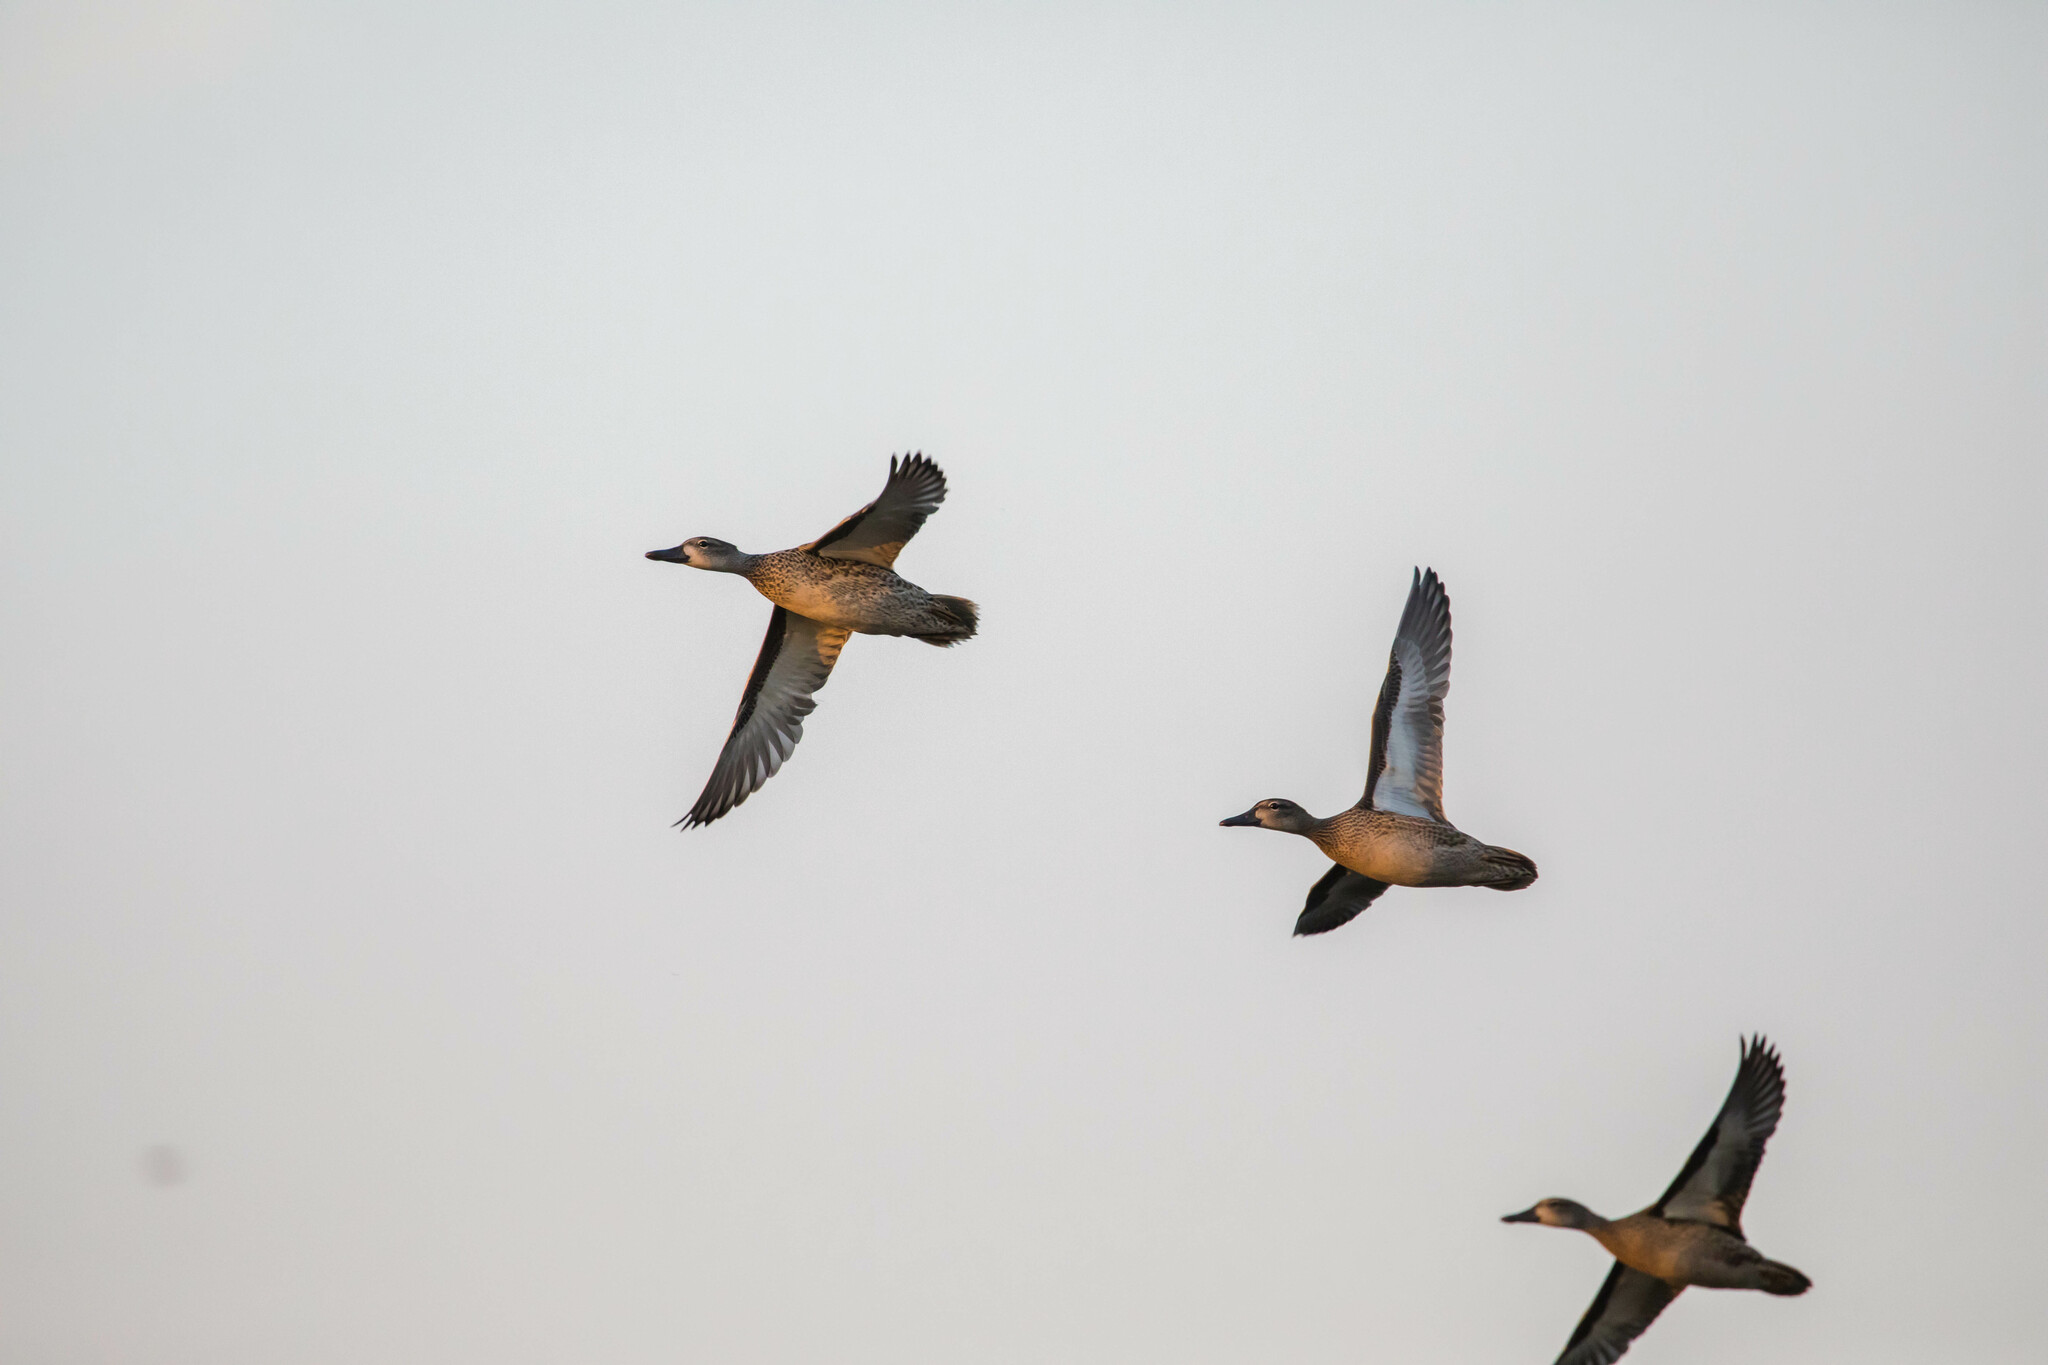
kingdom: Animalia
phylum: Chordata
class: Aves
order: Anseriformes
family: Anatidae
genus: Spatula
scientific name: Spatula discors
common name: Blue-winged teal
